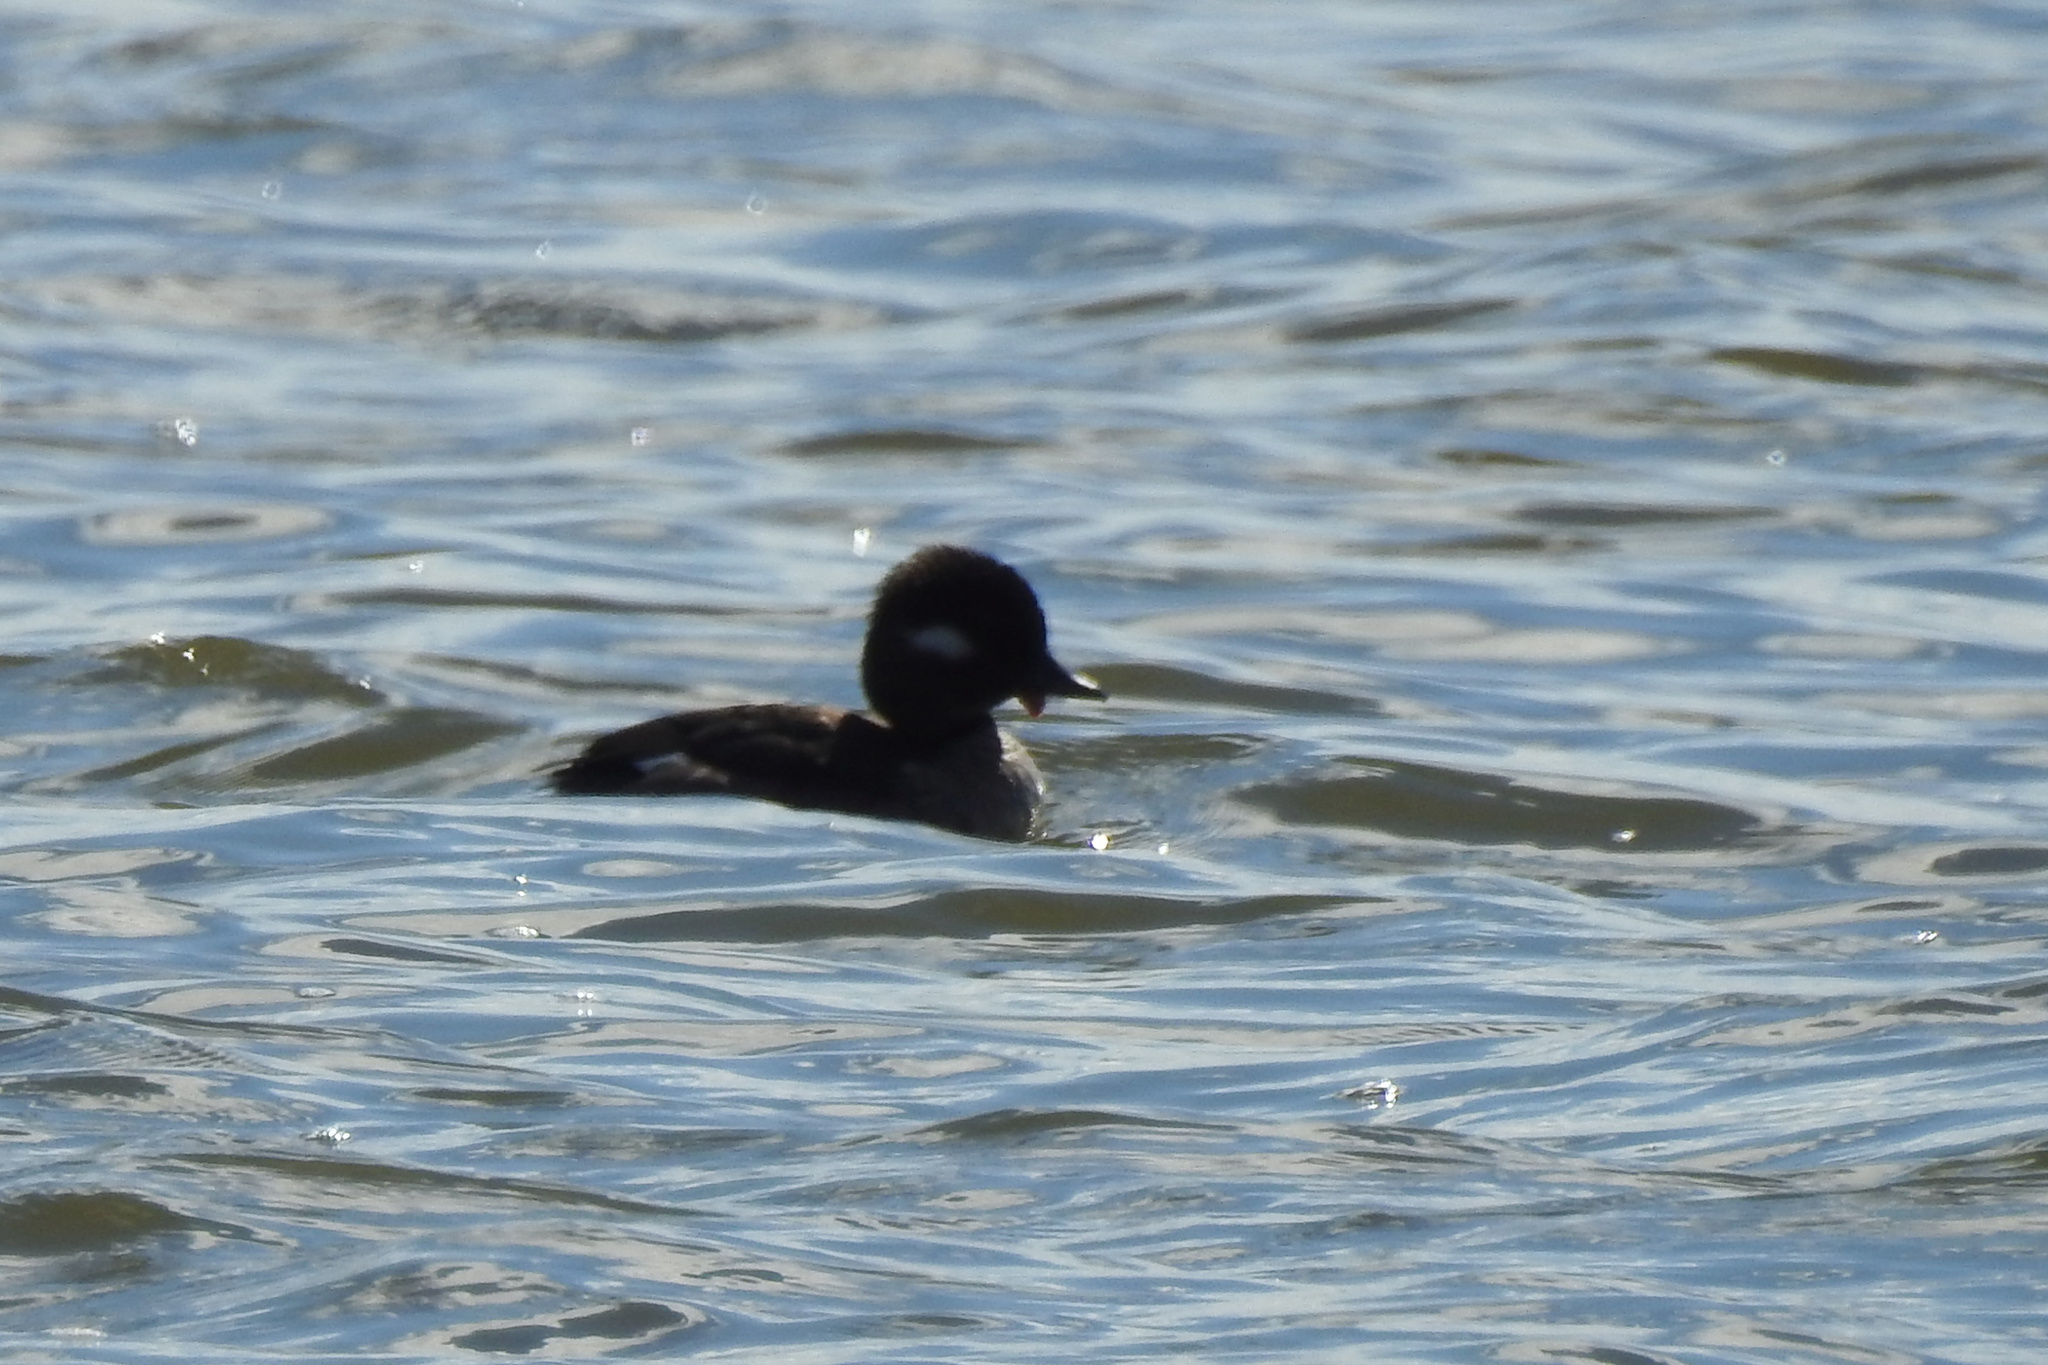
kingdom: Animalia
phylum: Chordata
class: Aves
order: Anseriformes
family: Anatidae
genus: Bucephala
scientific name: Bucephala albeola
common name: Bufflehead
